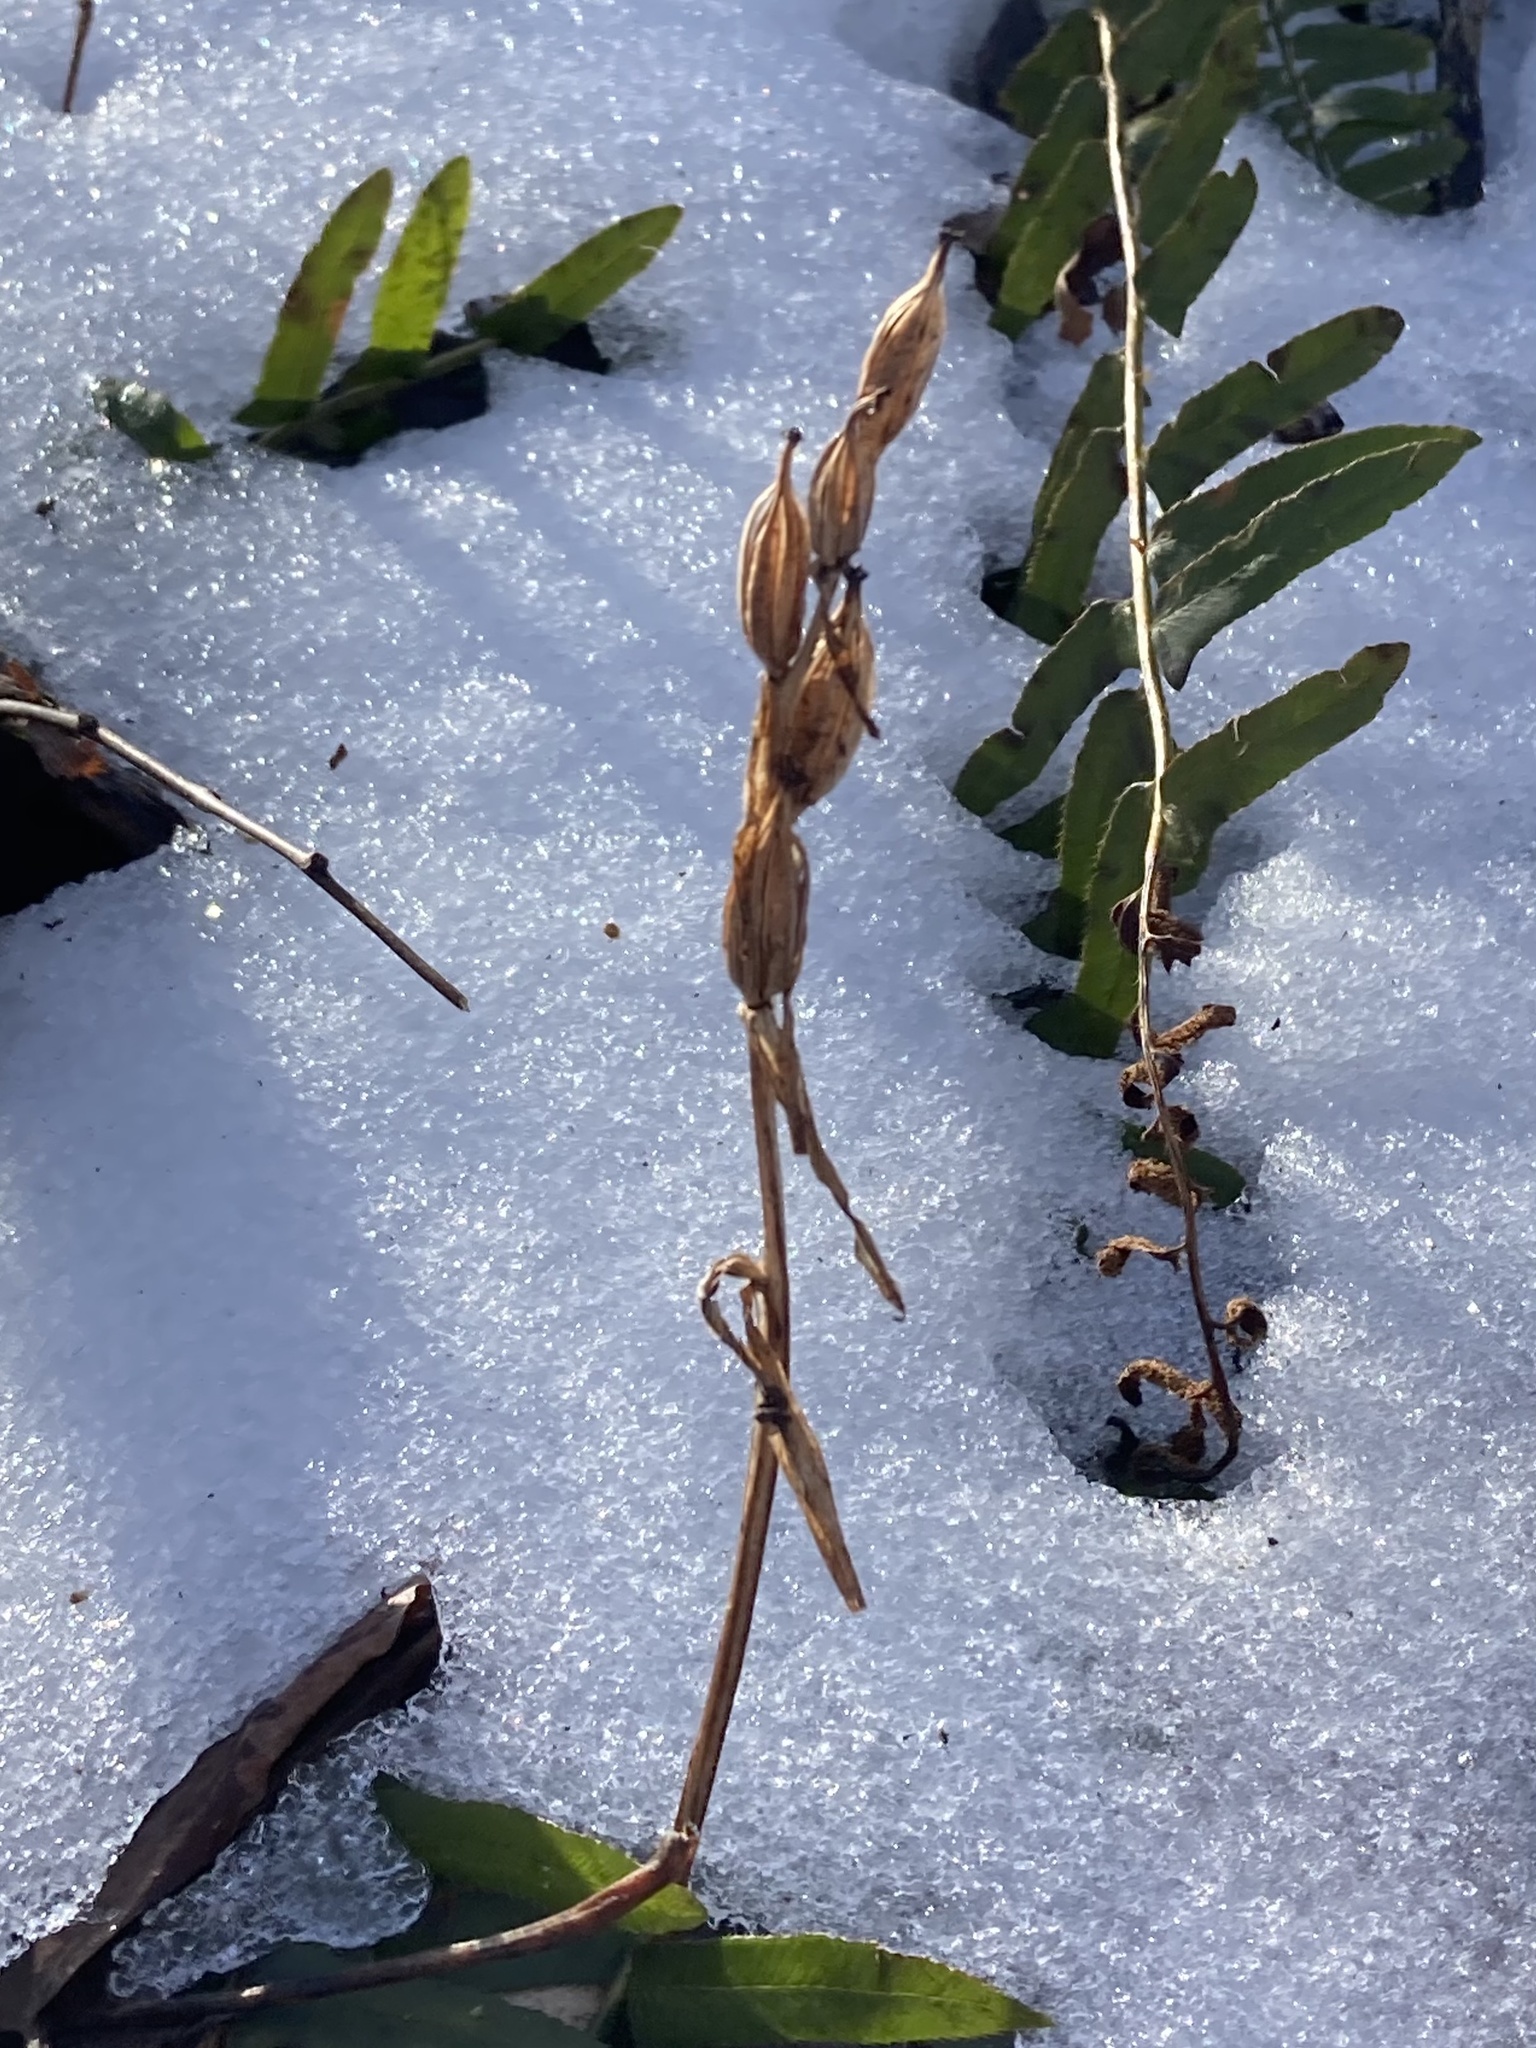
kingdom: Plantae
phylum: Tracheophyta
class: Liliopsida
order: Asparagales
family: Orchidaceae
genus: Galearis
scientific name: Galearis spectabilis
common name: Purple-hooded orchis
